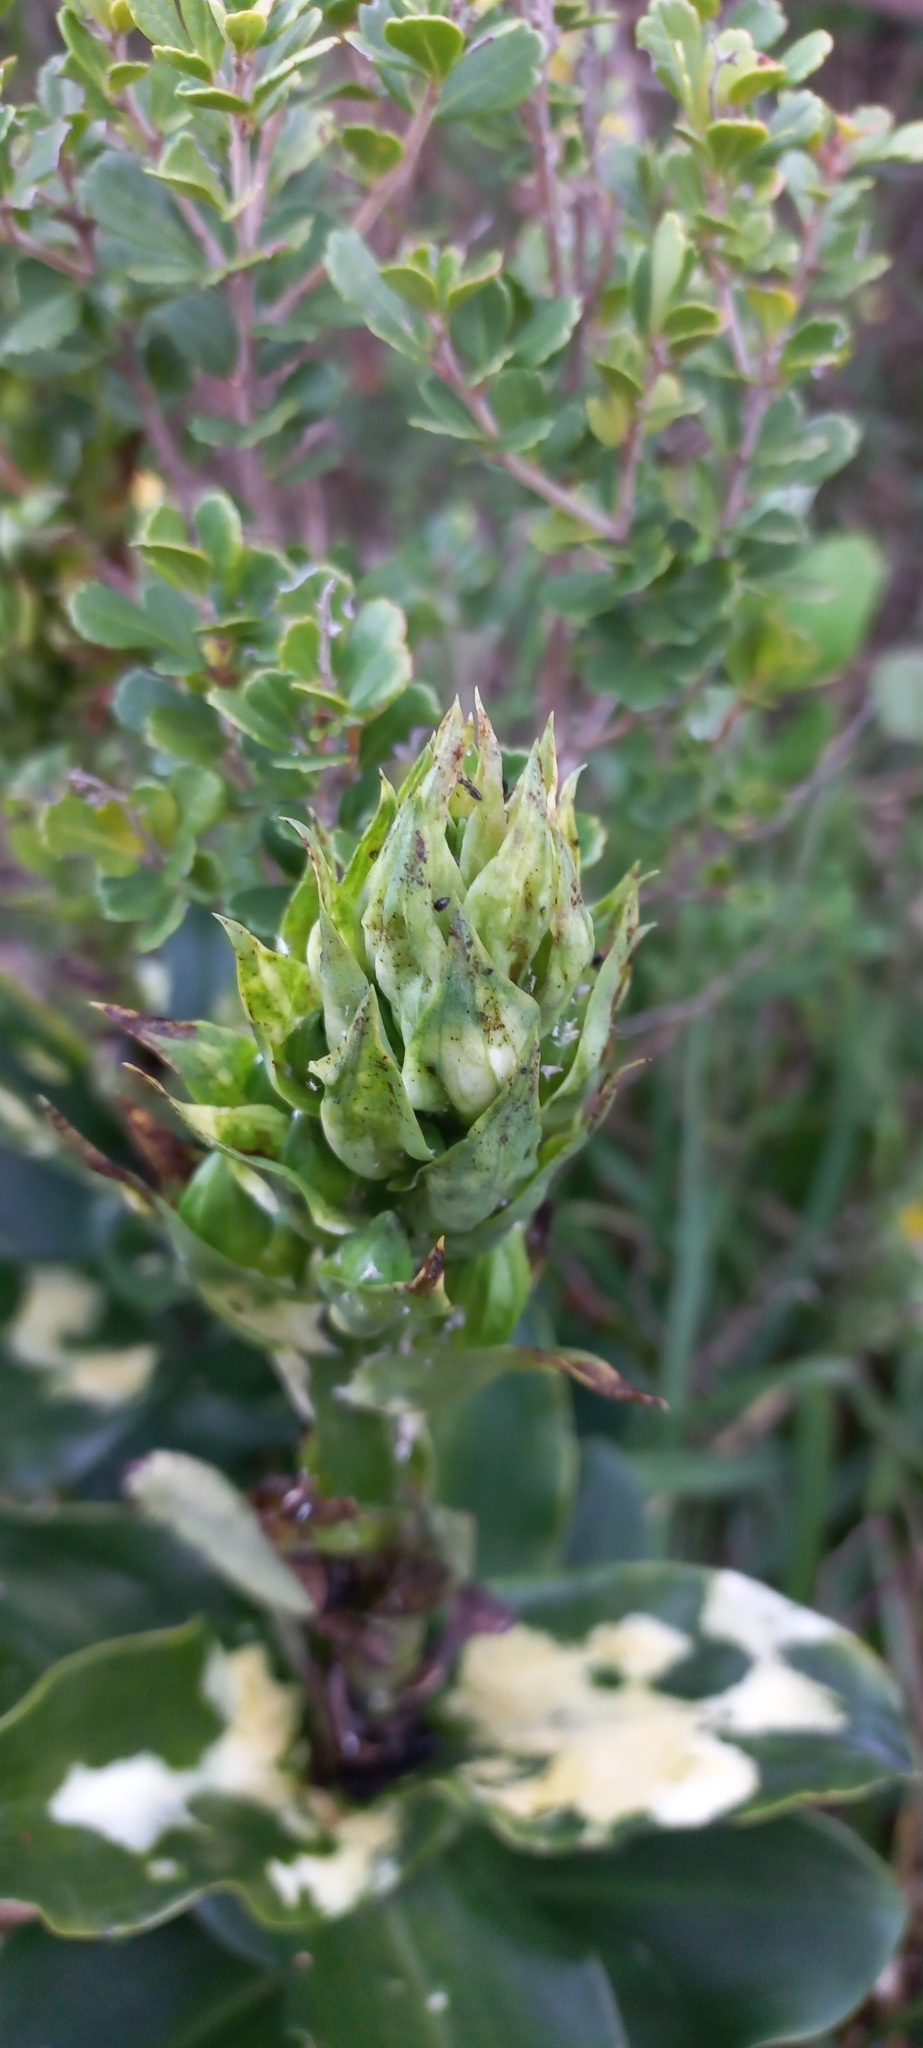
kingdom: Plantae
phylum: Tracheophyta
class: Liliopsida
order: Asparagales
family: Orchidaceae
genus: Bonatea
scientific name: Bonatea speciosa
